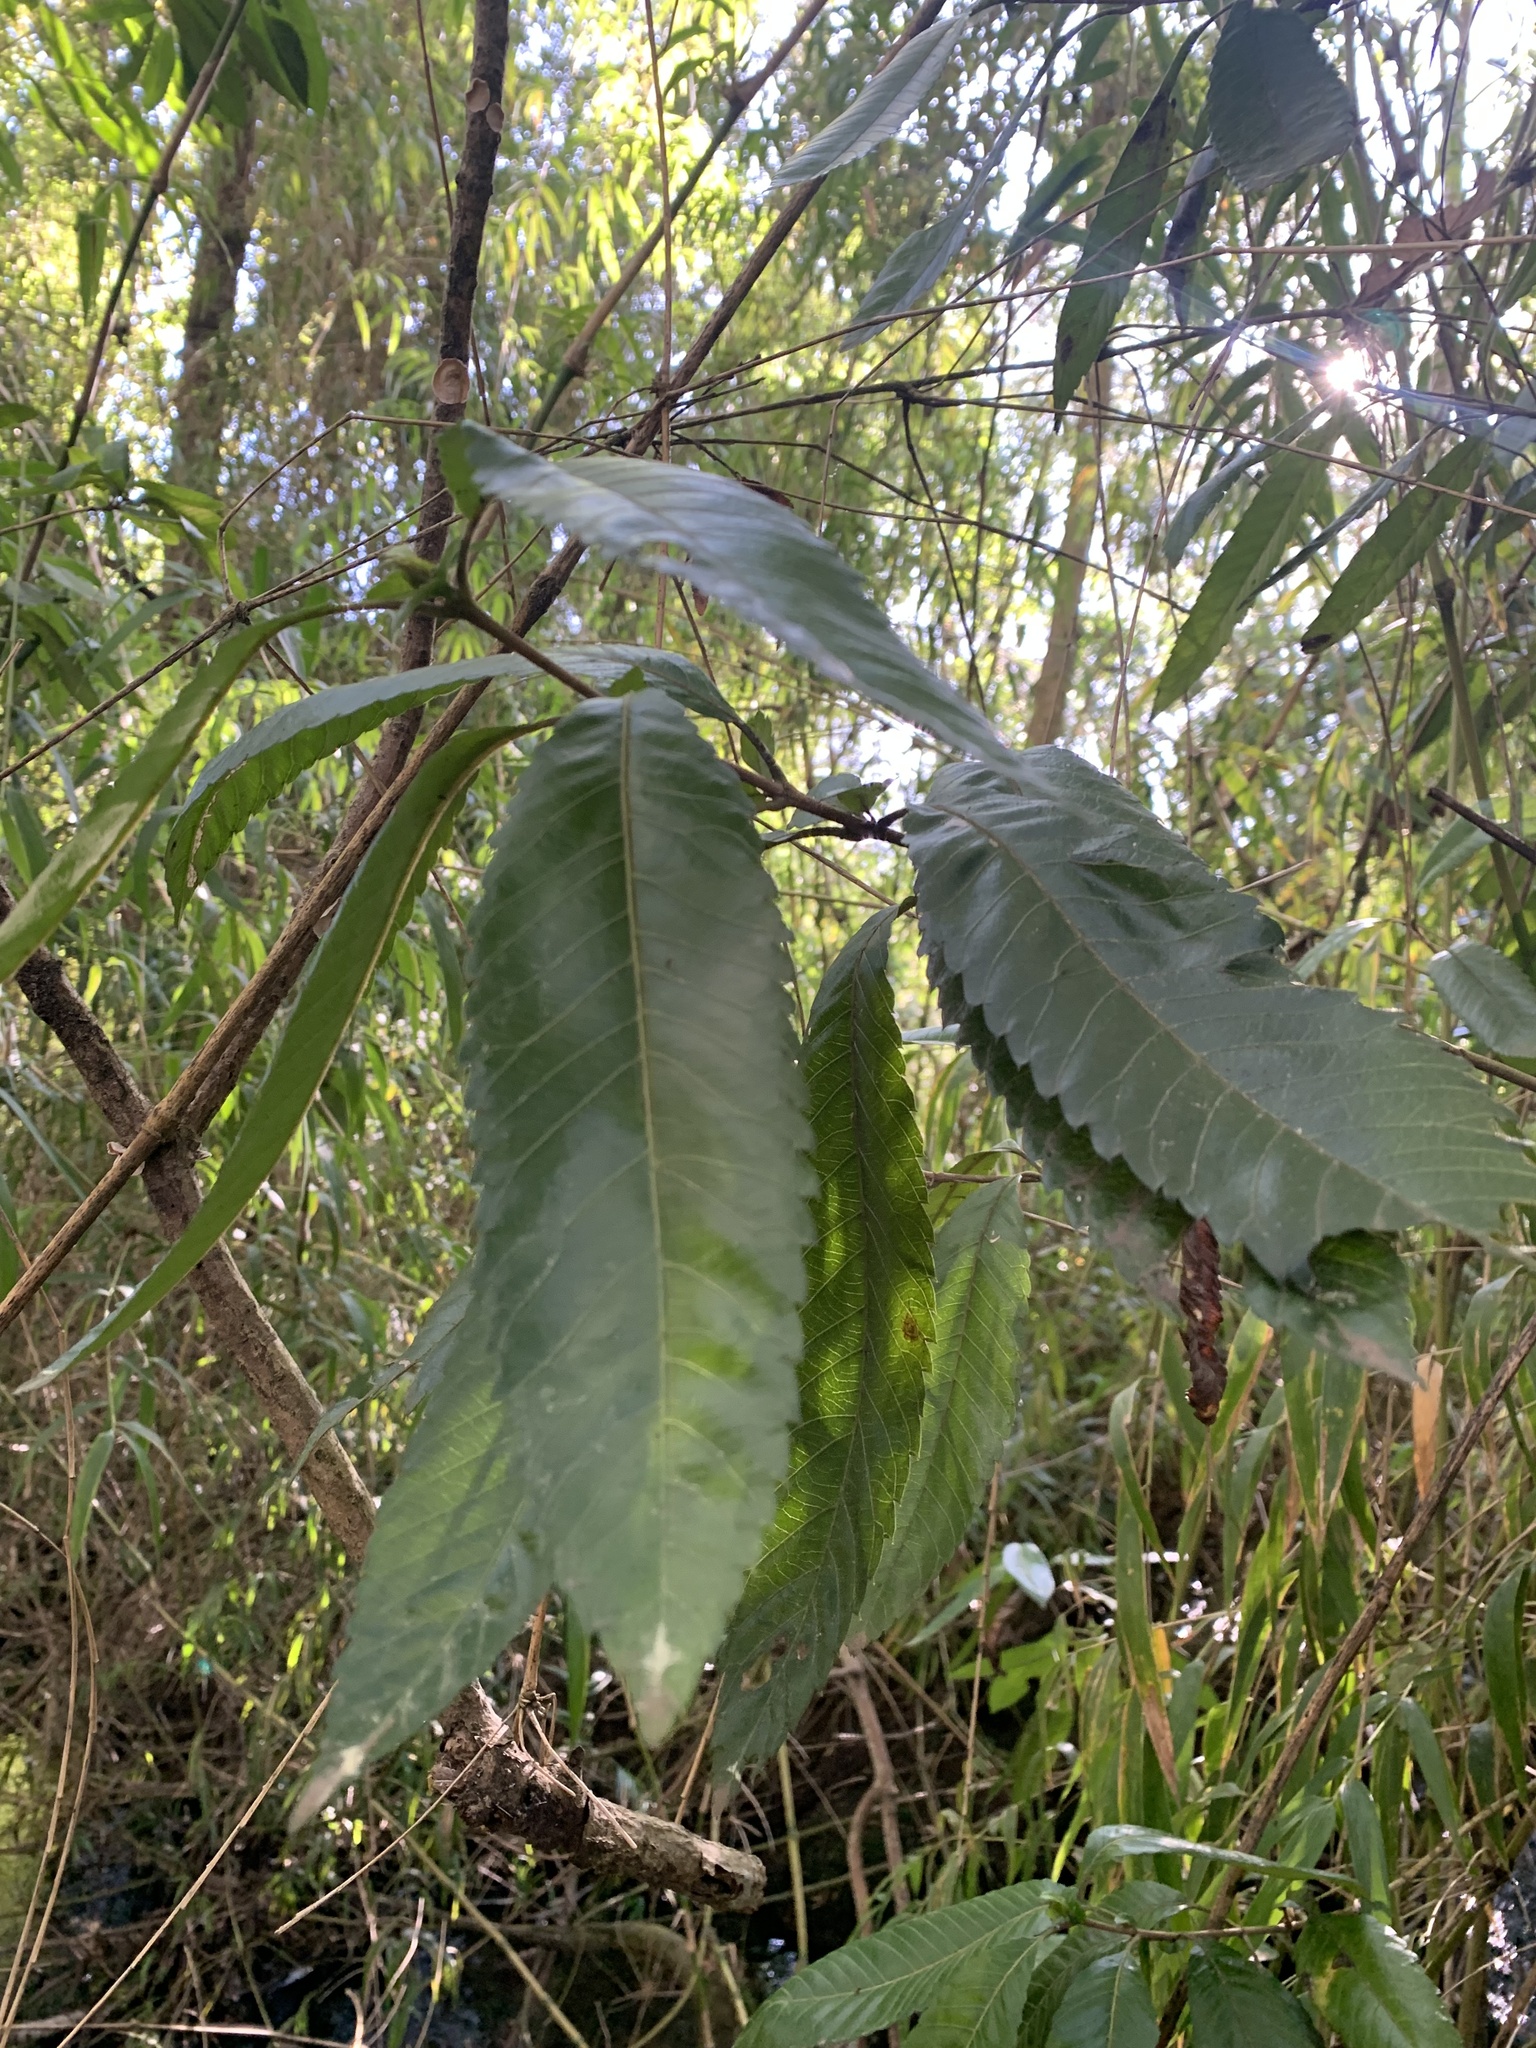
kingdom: Plantae
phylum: Tracheophyta
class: Magnoliopsida
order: Oxalidales
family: Cunoniaceae
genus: Caldcluvia
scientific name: Caldcluvia paniculata
